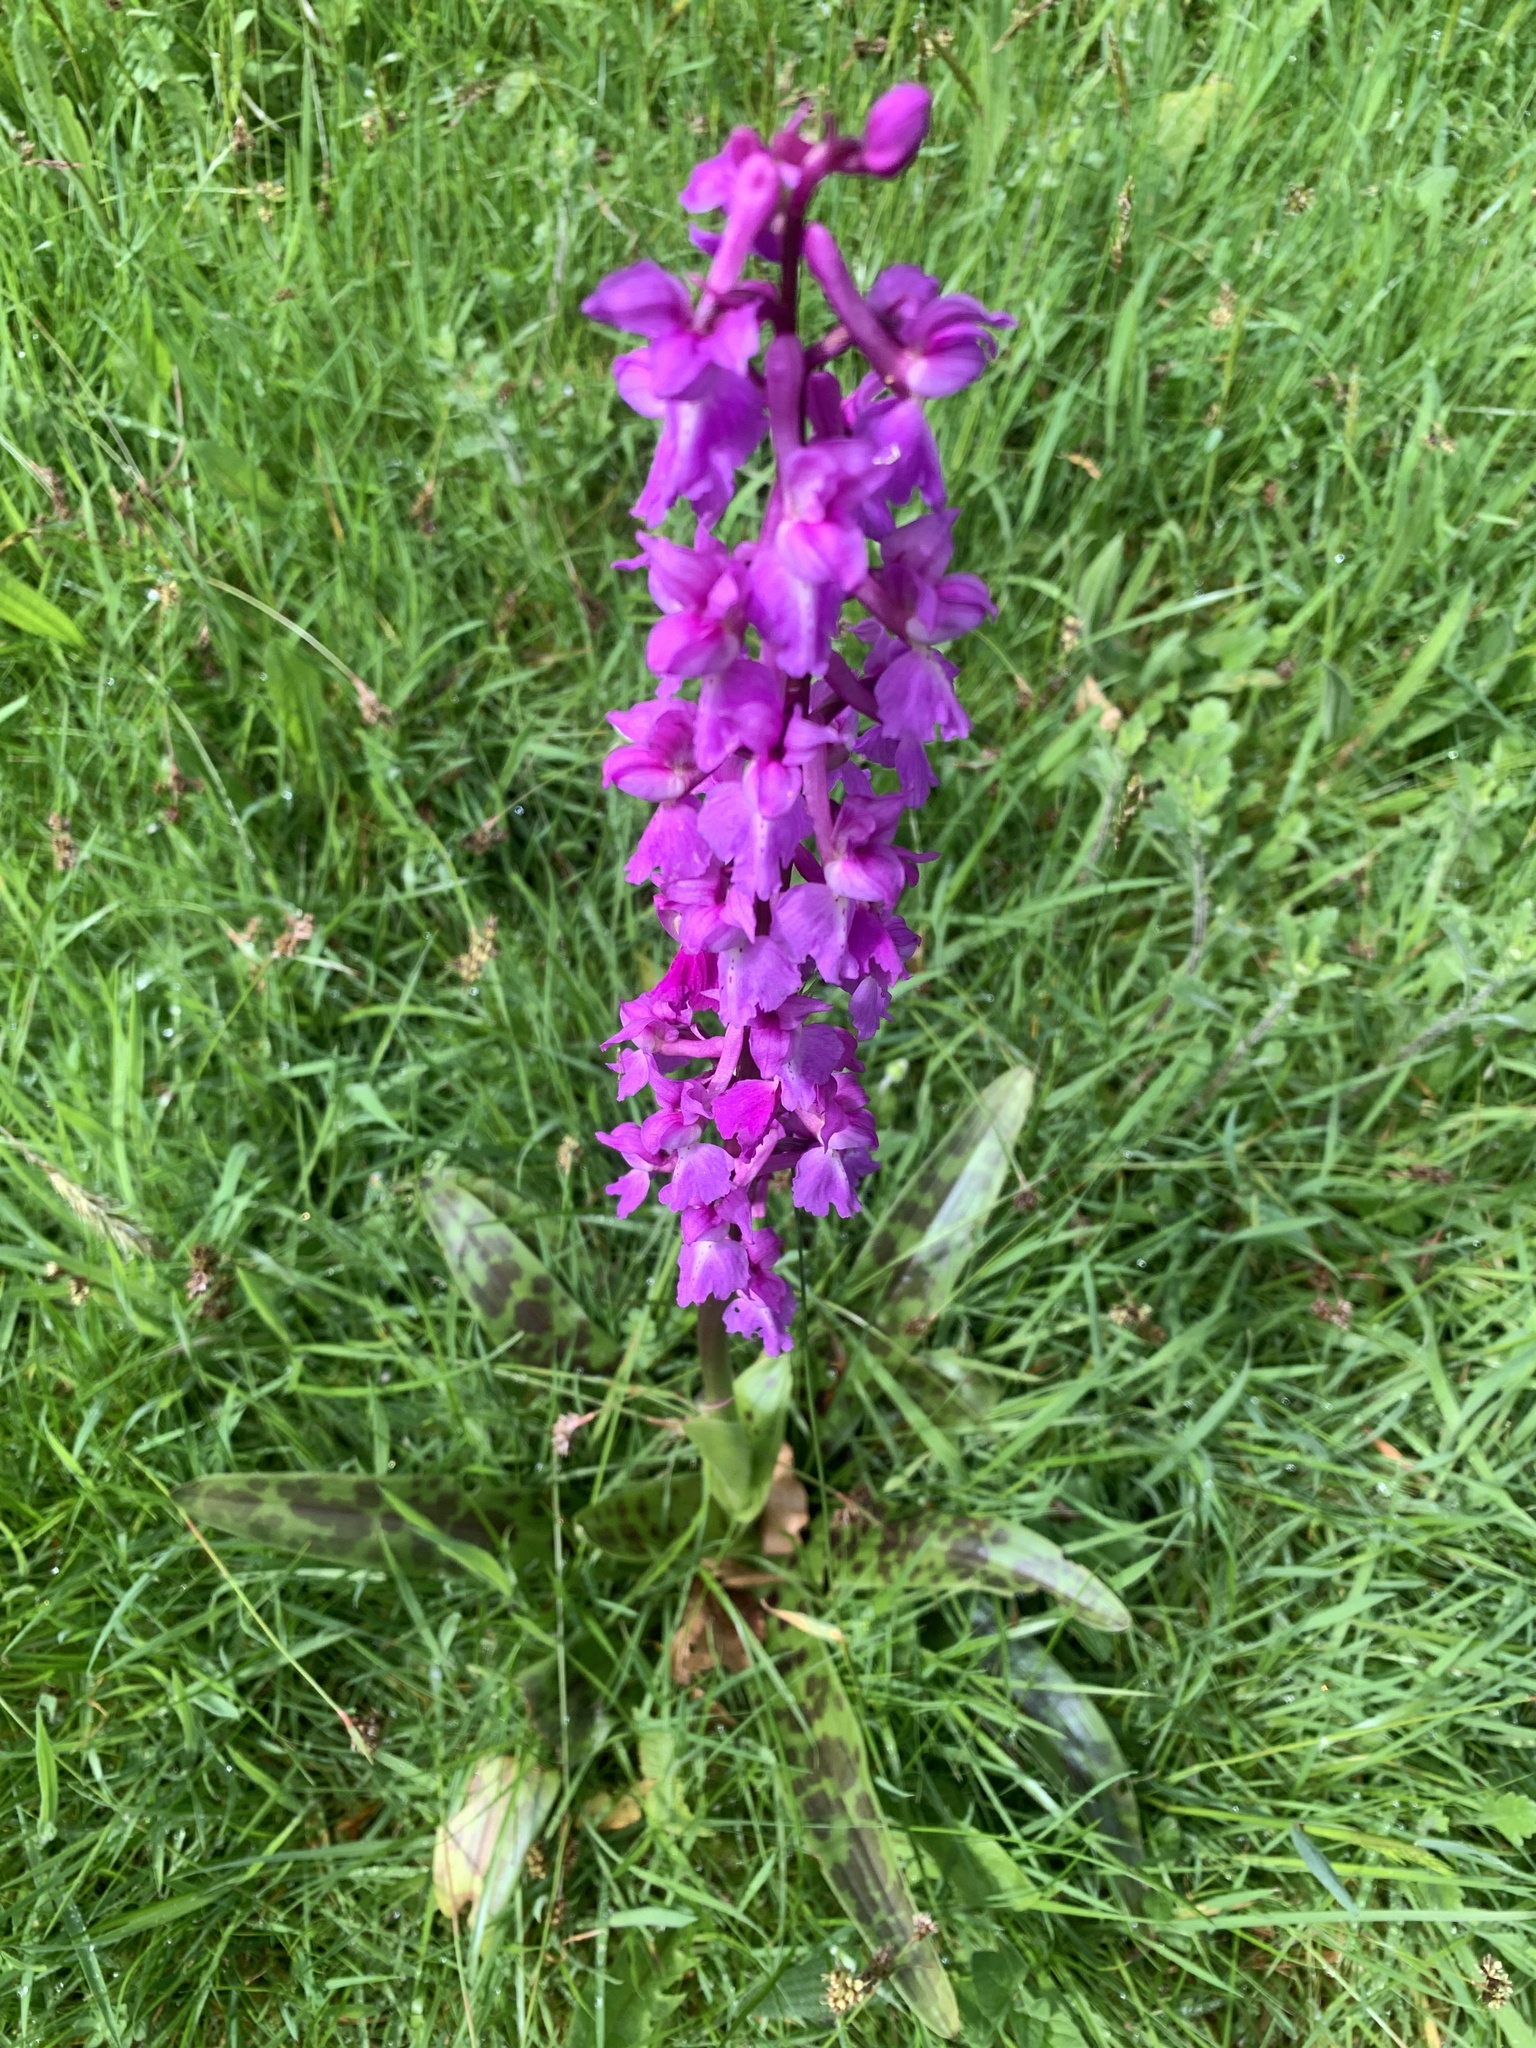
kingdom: Plantae
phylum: Tracheophyta
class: Liliopsida
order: Asparagales
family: Orchidaceae
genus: Orchis
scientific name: Orchis mascula
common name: Early-purple orchid
